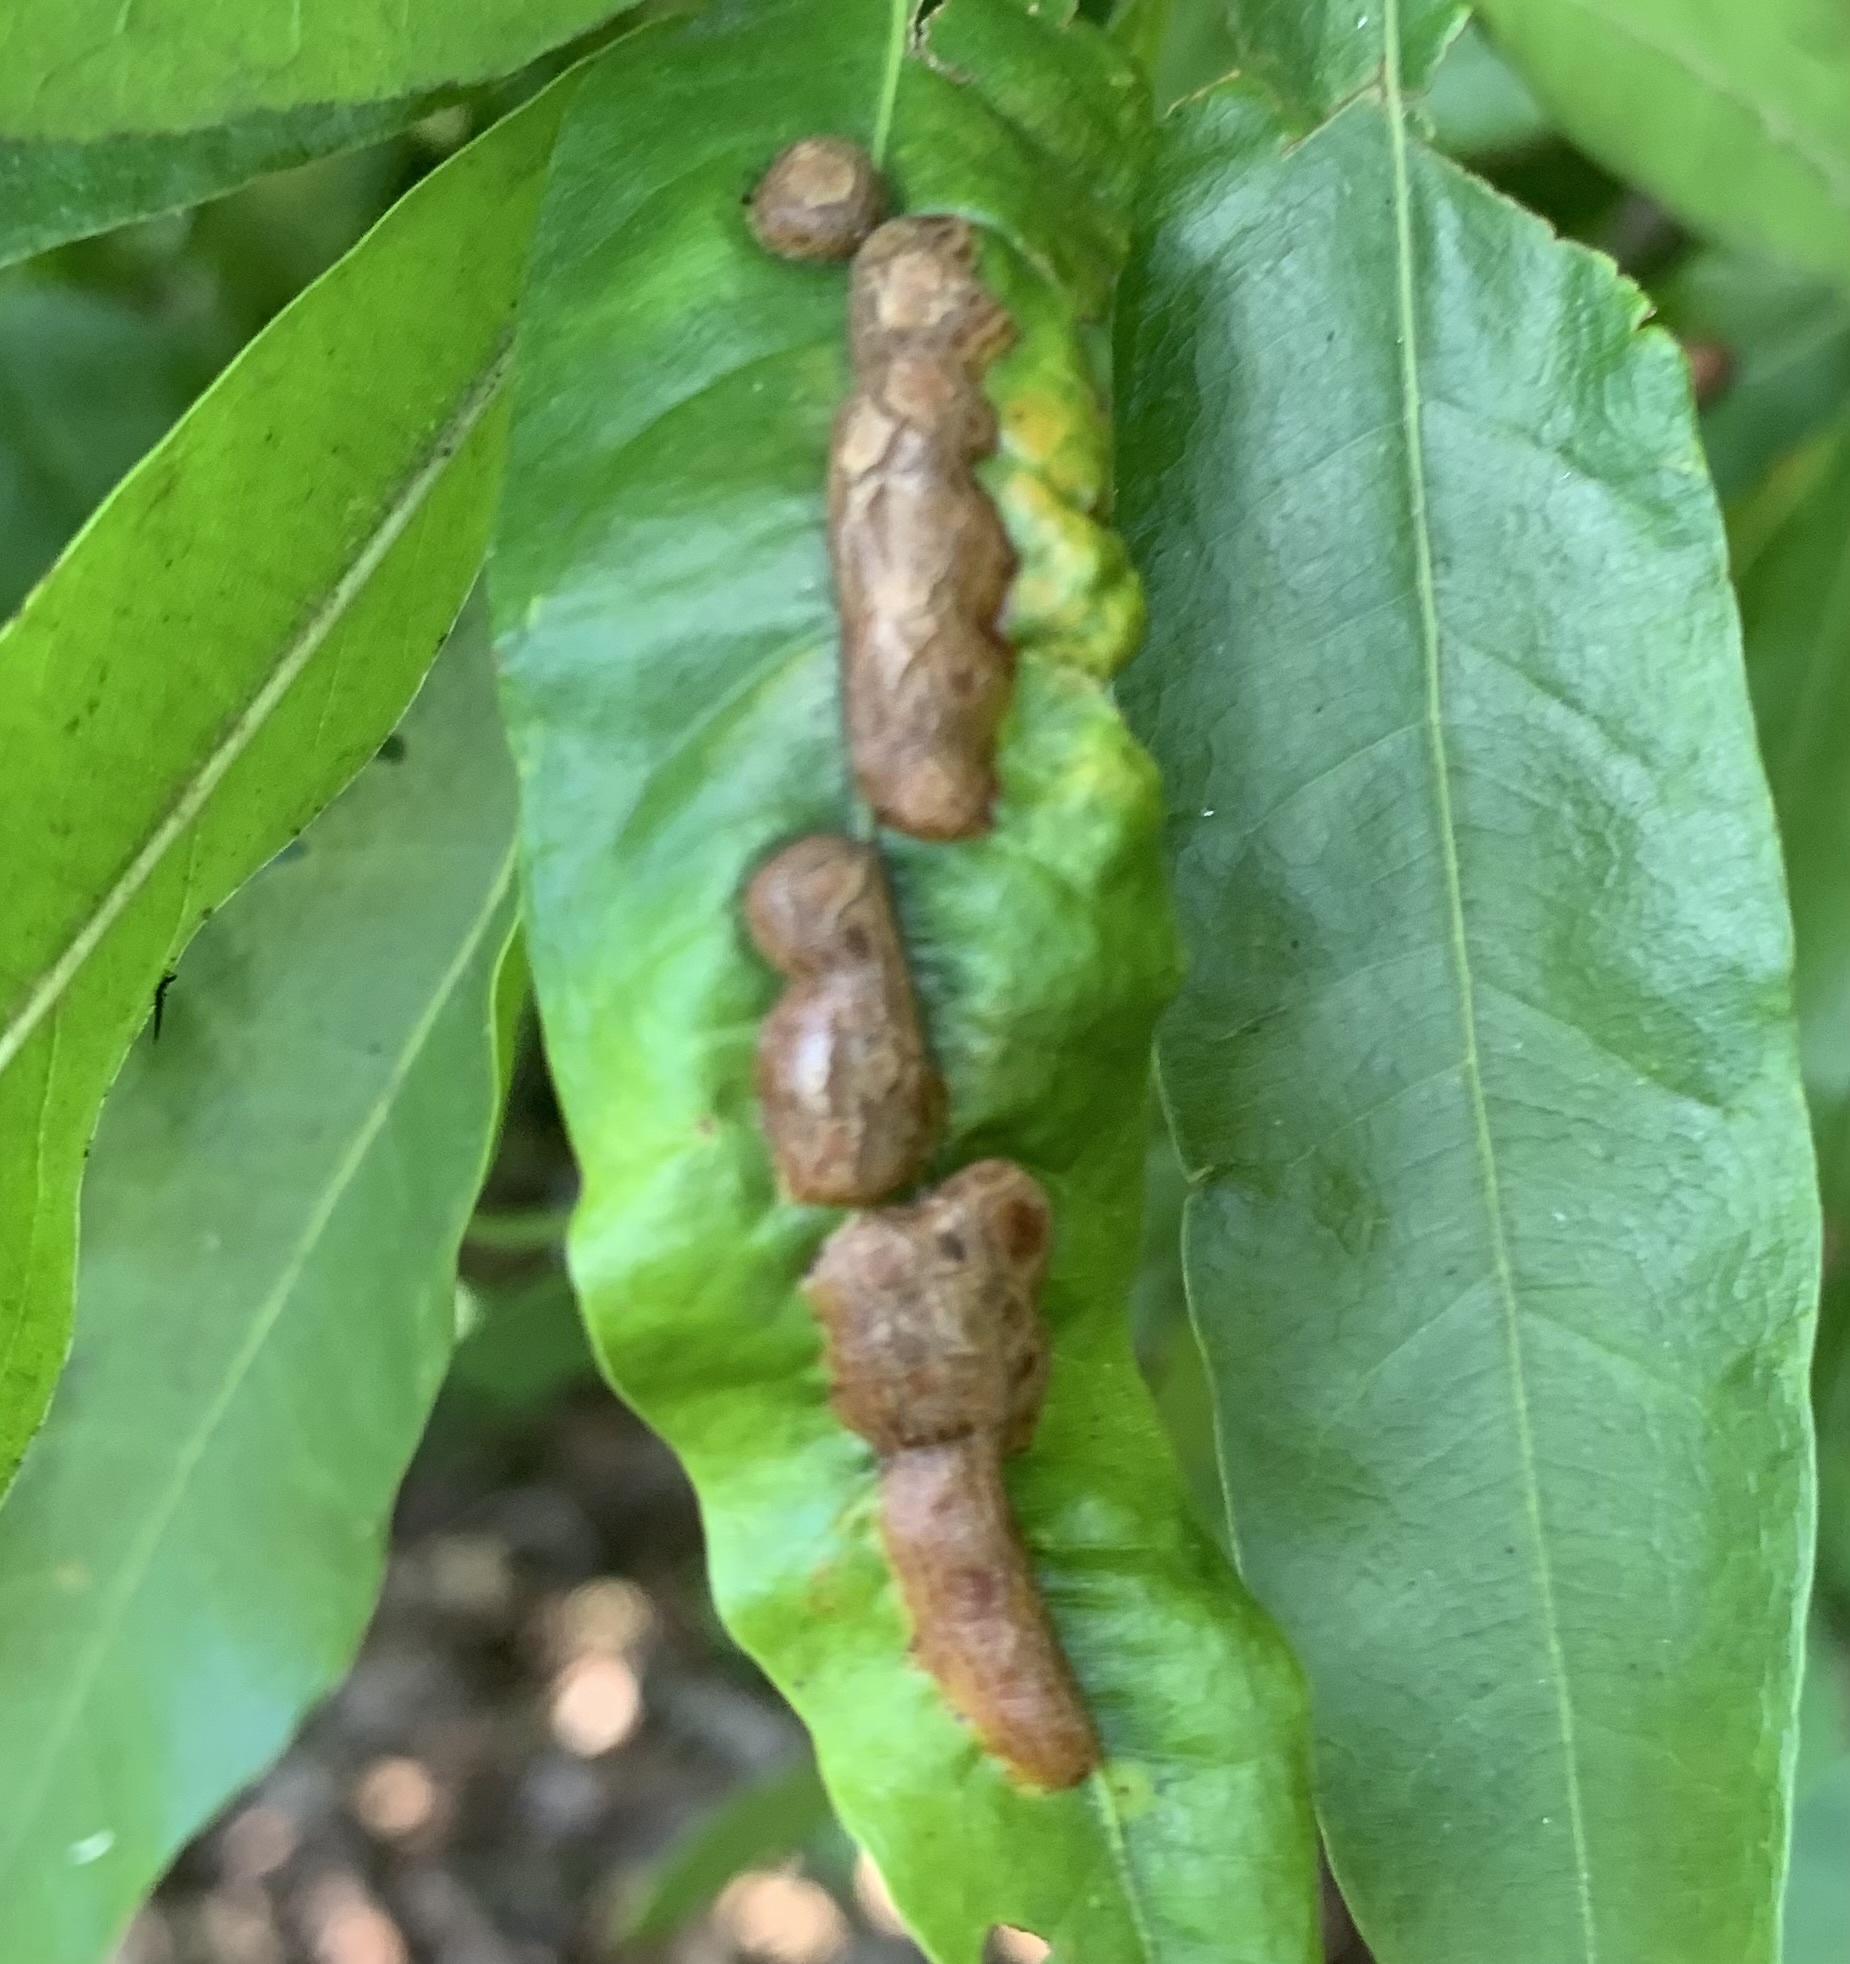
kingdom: Animalia
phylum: Arthropoda
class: Insecta
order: Diptera
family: Cecidomyiidae
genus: Polystepha
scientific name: Polystepha pilulae
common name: Oak leaf gall midge
